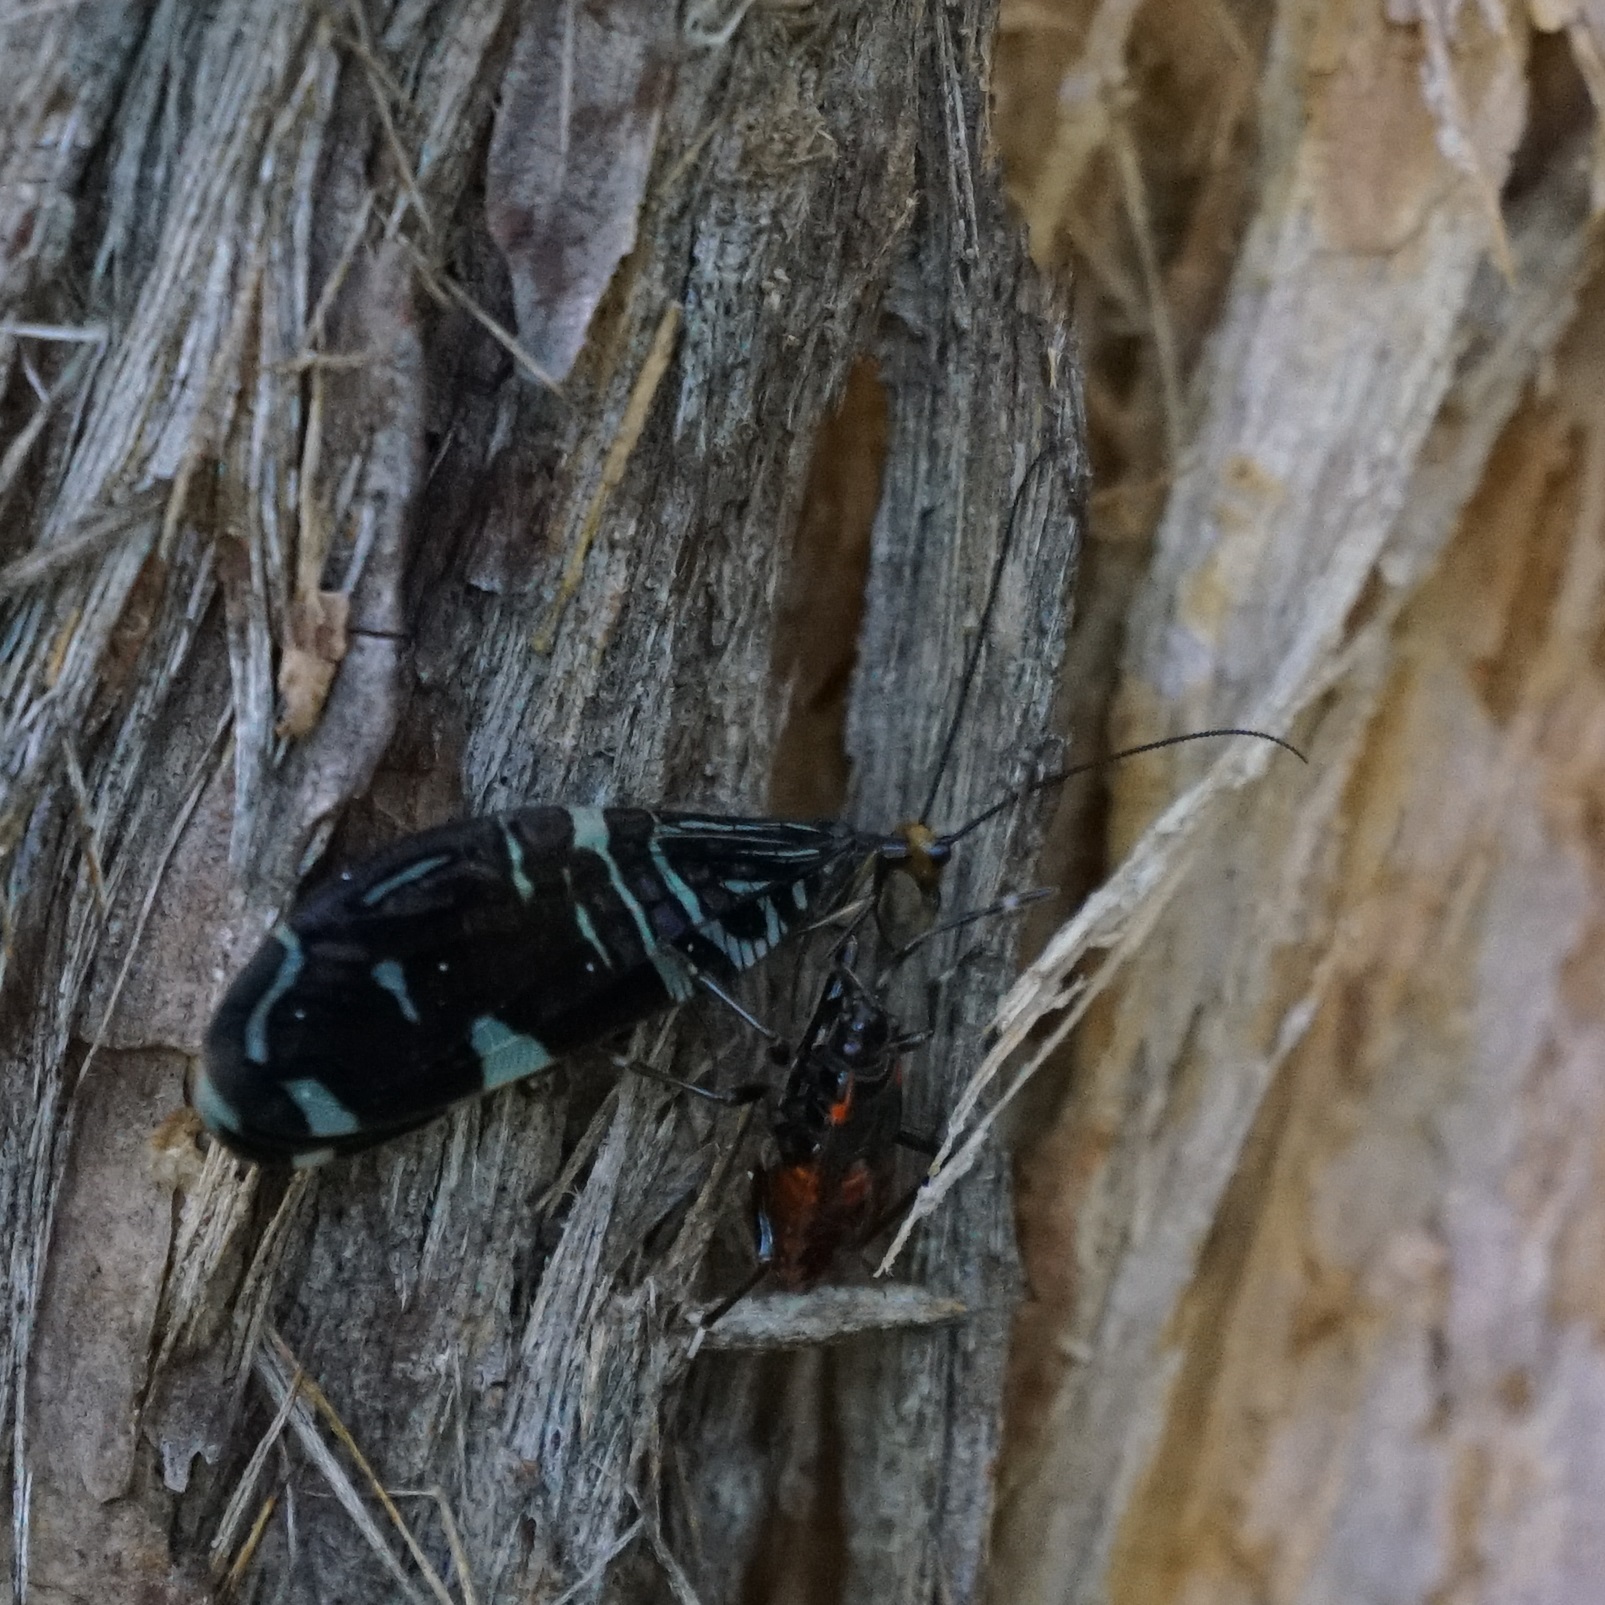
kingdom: Animalia
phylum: Arthropoda
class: Insecta
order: Neuroptera
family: Osmylidae
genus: Porismus
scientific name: Porismus strigatus
